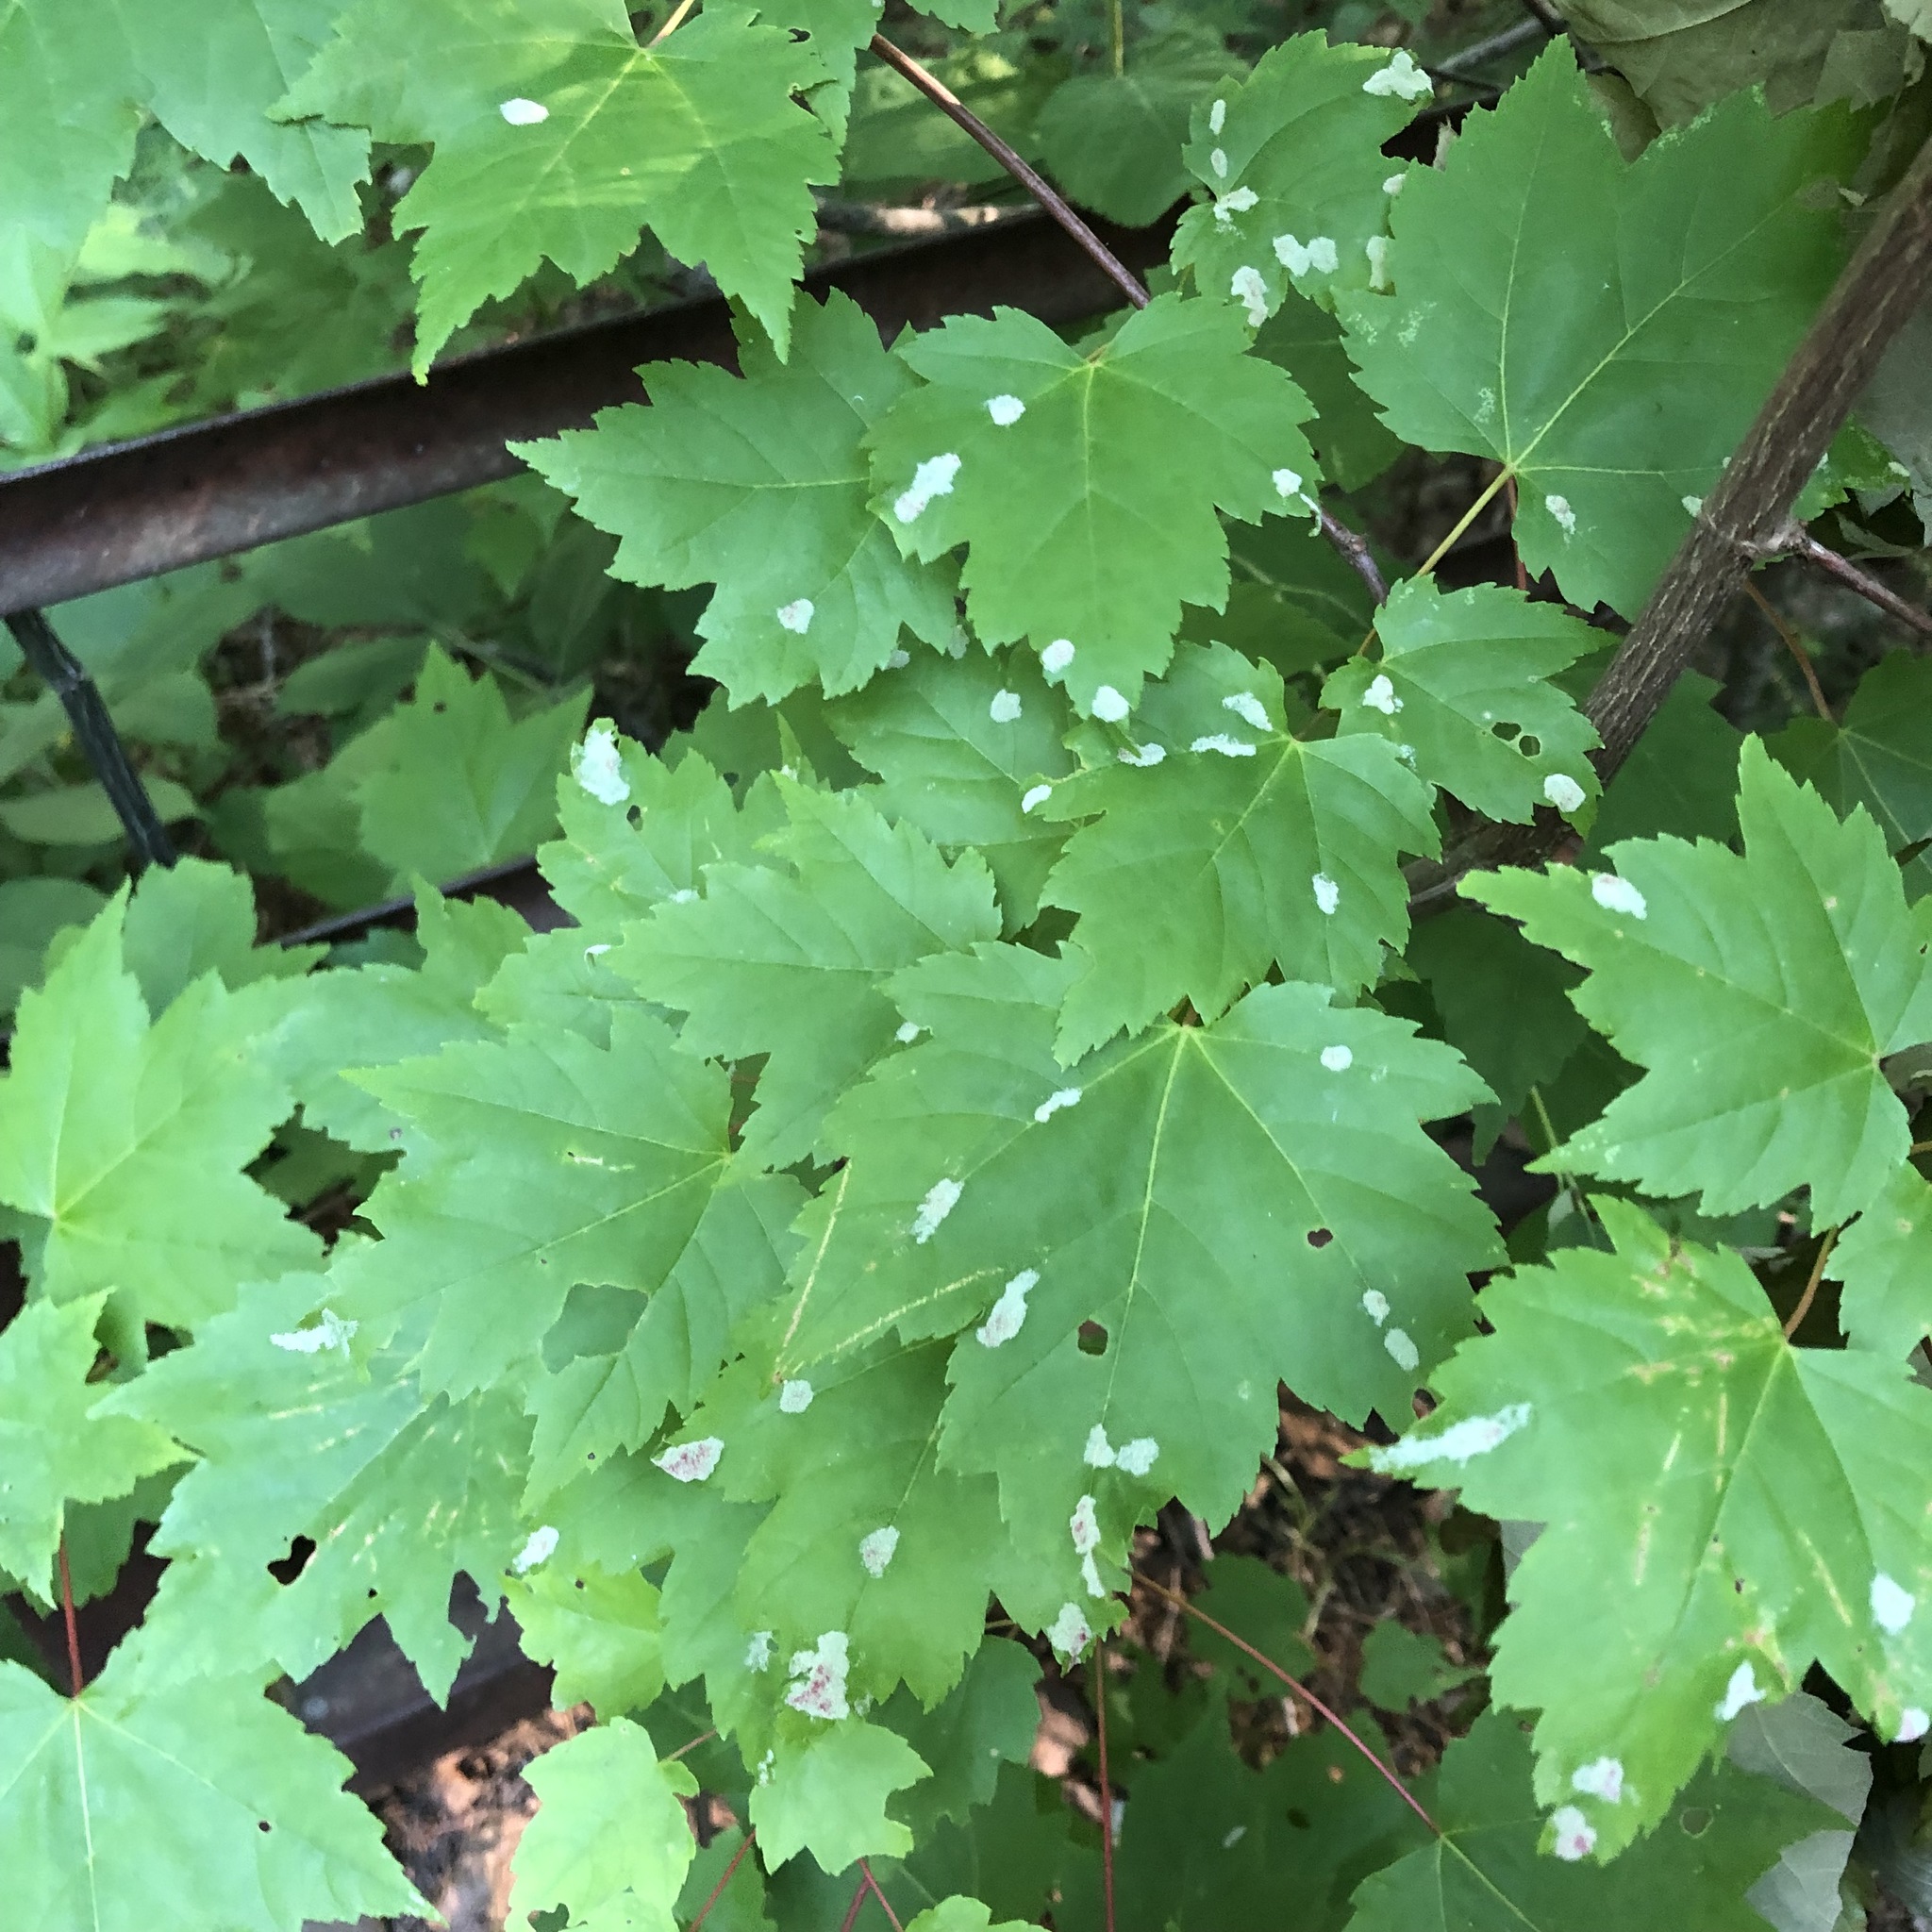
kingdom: Plantae
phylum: Tracheophyta
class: Magnoliopsida
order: Sapindales
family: Sapindaceae
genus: Acer
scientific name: Acer rubrum
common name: Red maple
